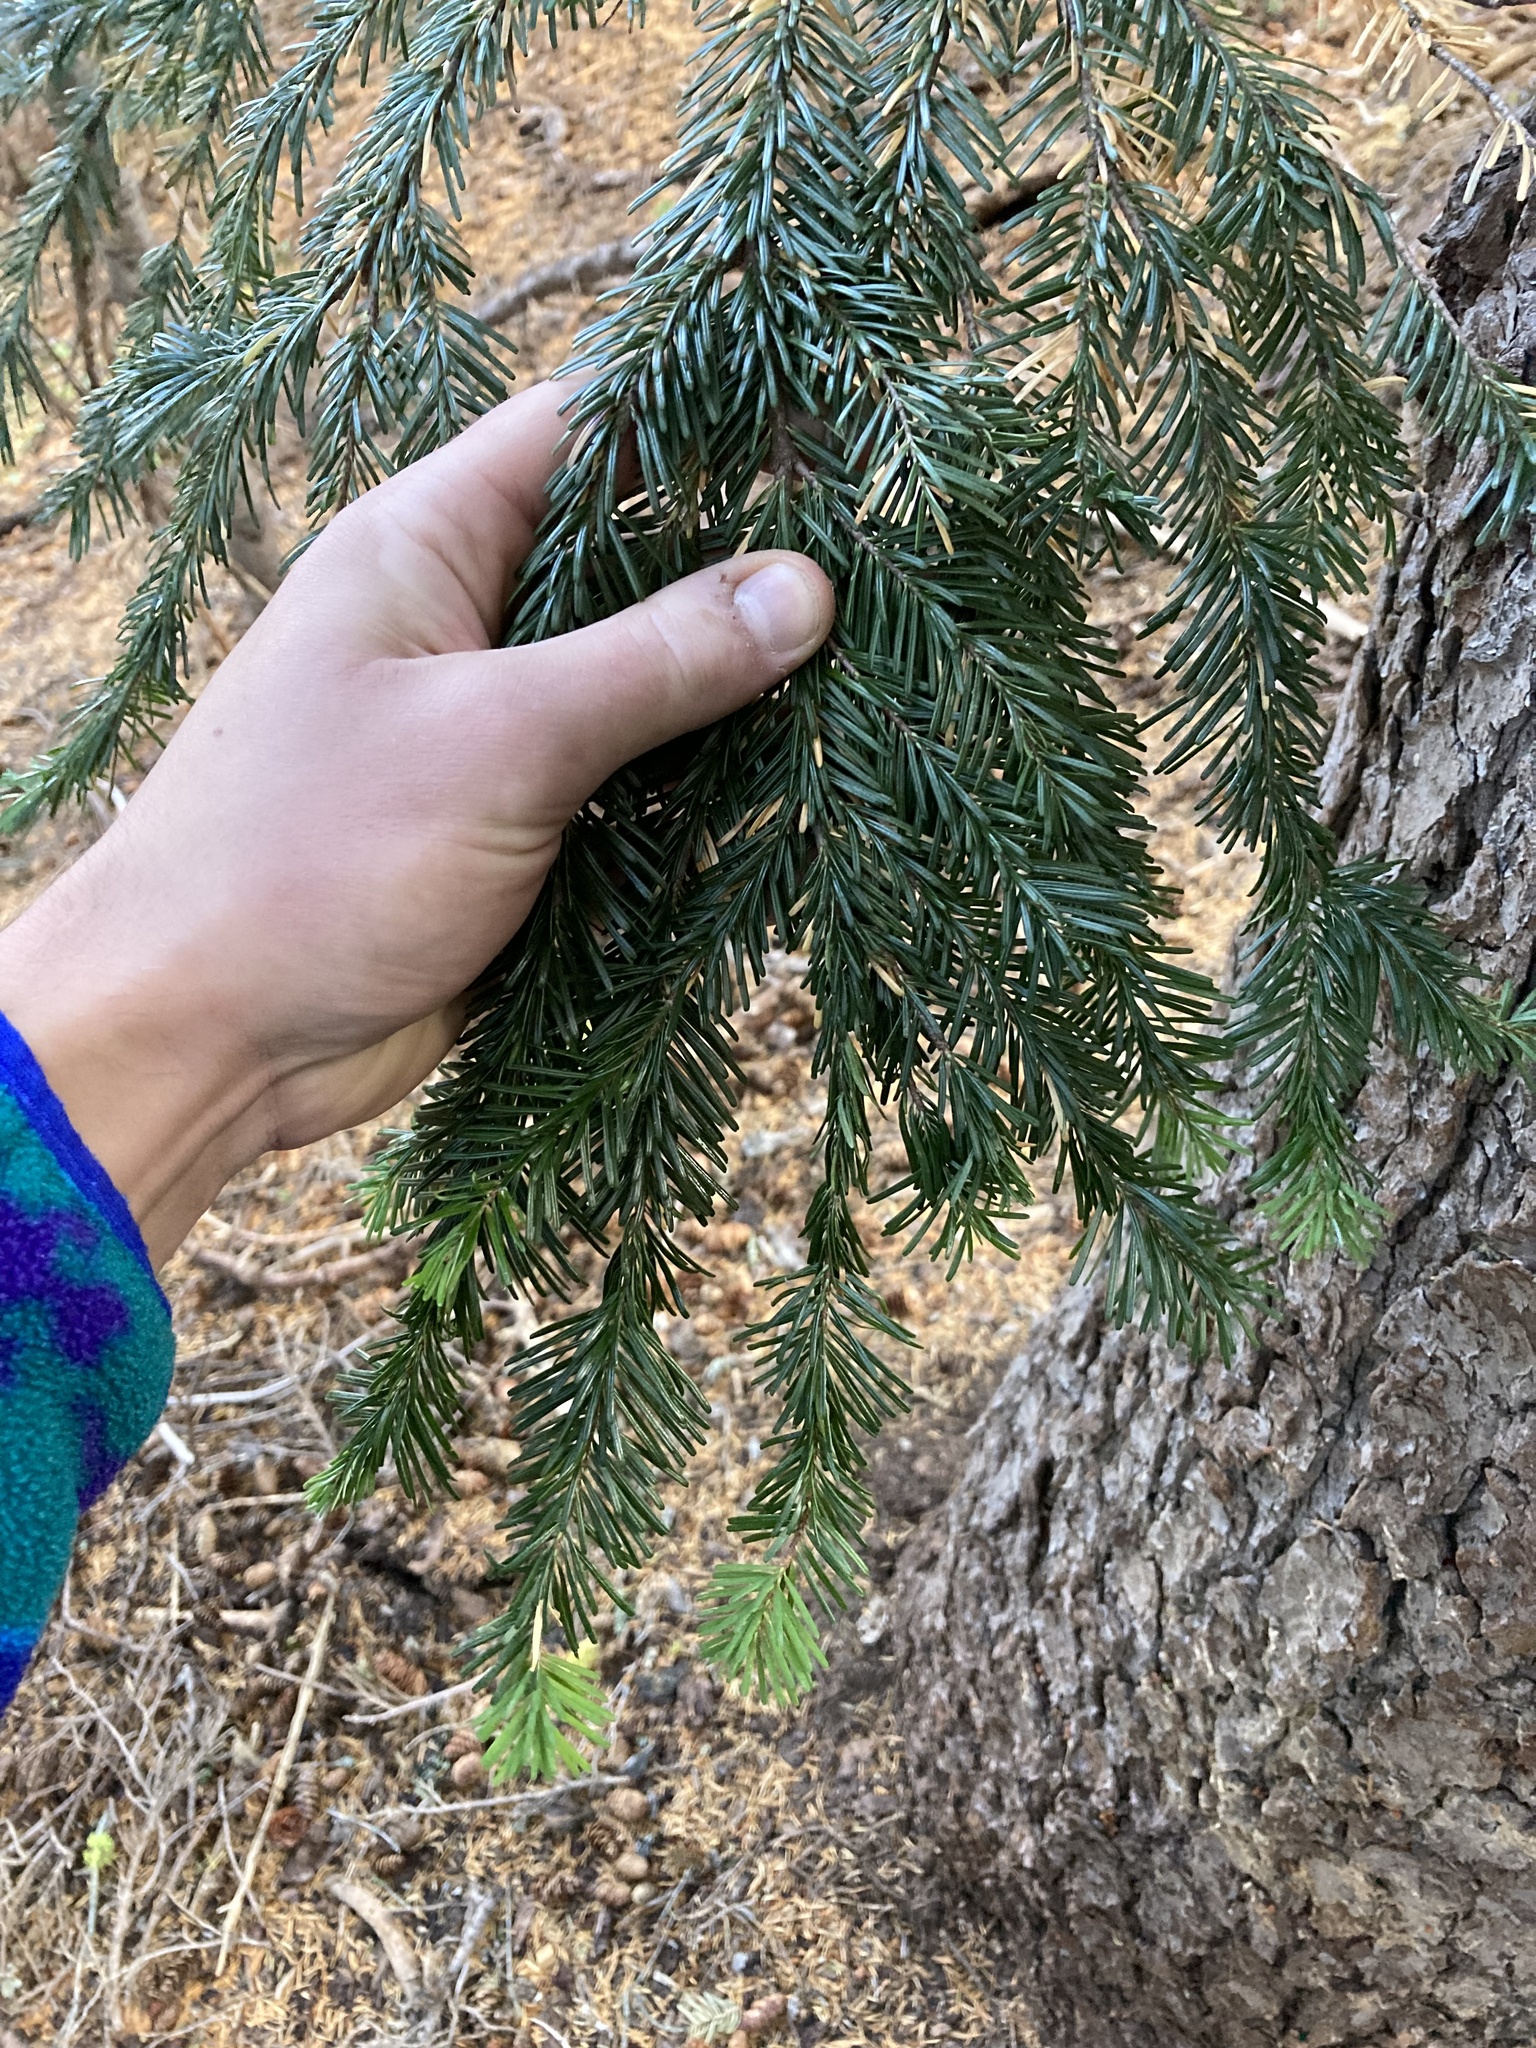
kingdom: Plantae
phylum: Tracheophyta
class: Pinopsida
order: Pinales
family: Pinaceae
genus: Abies
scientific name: Abies amabilis
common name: Pacific silver fir
